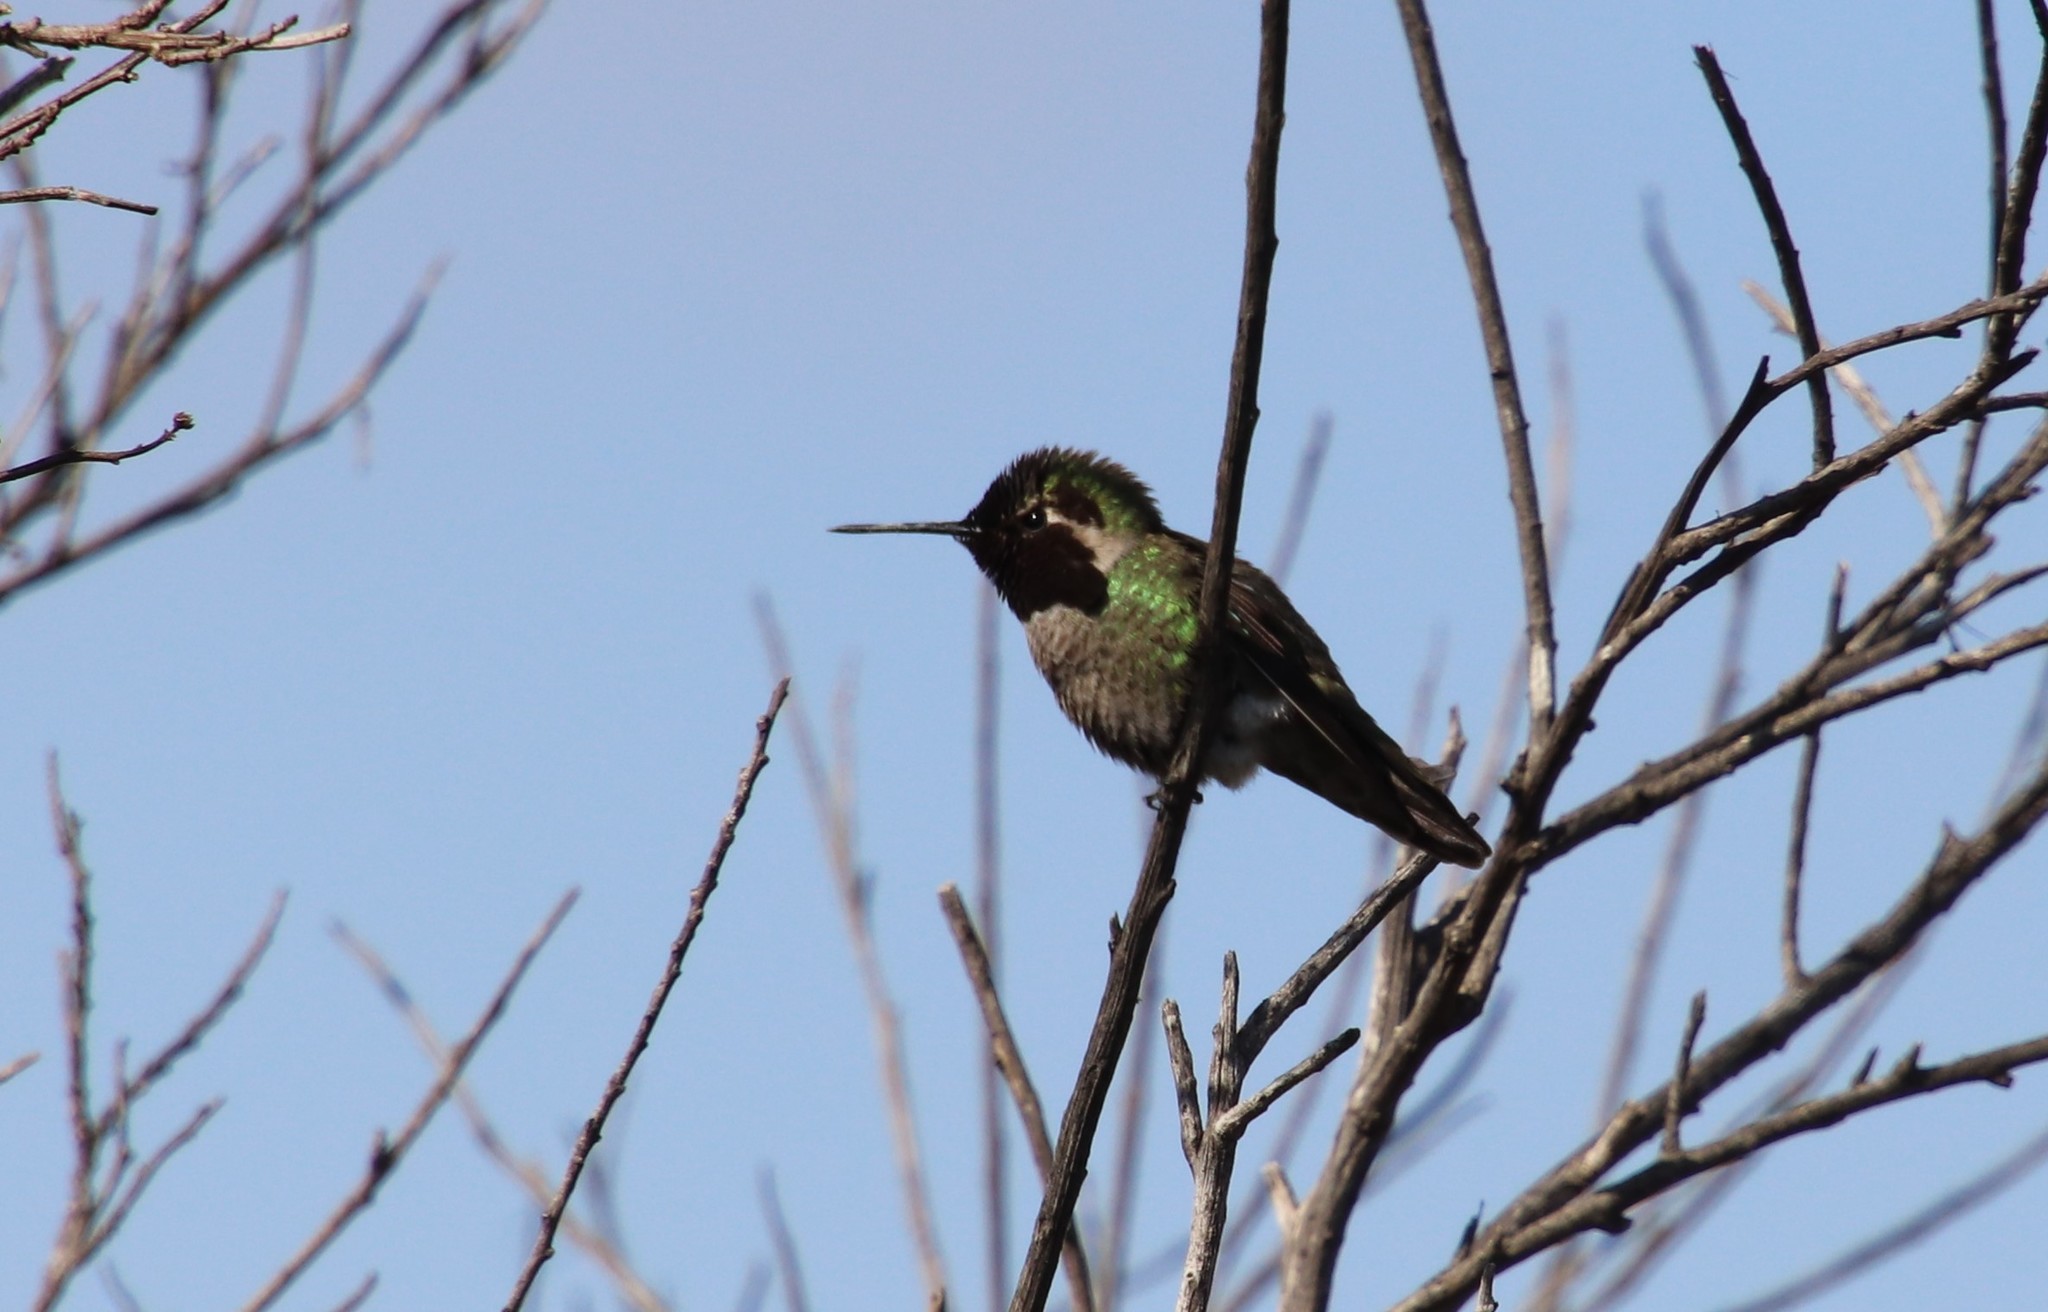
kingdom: Animalia
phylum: Chordata
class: Aves
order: Apodiformes
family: Trochilidae
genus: Calypte
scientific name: Calypte anna
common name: Anna's hummingbird
